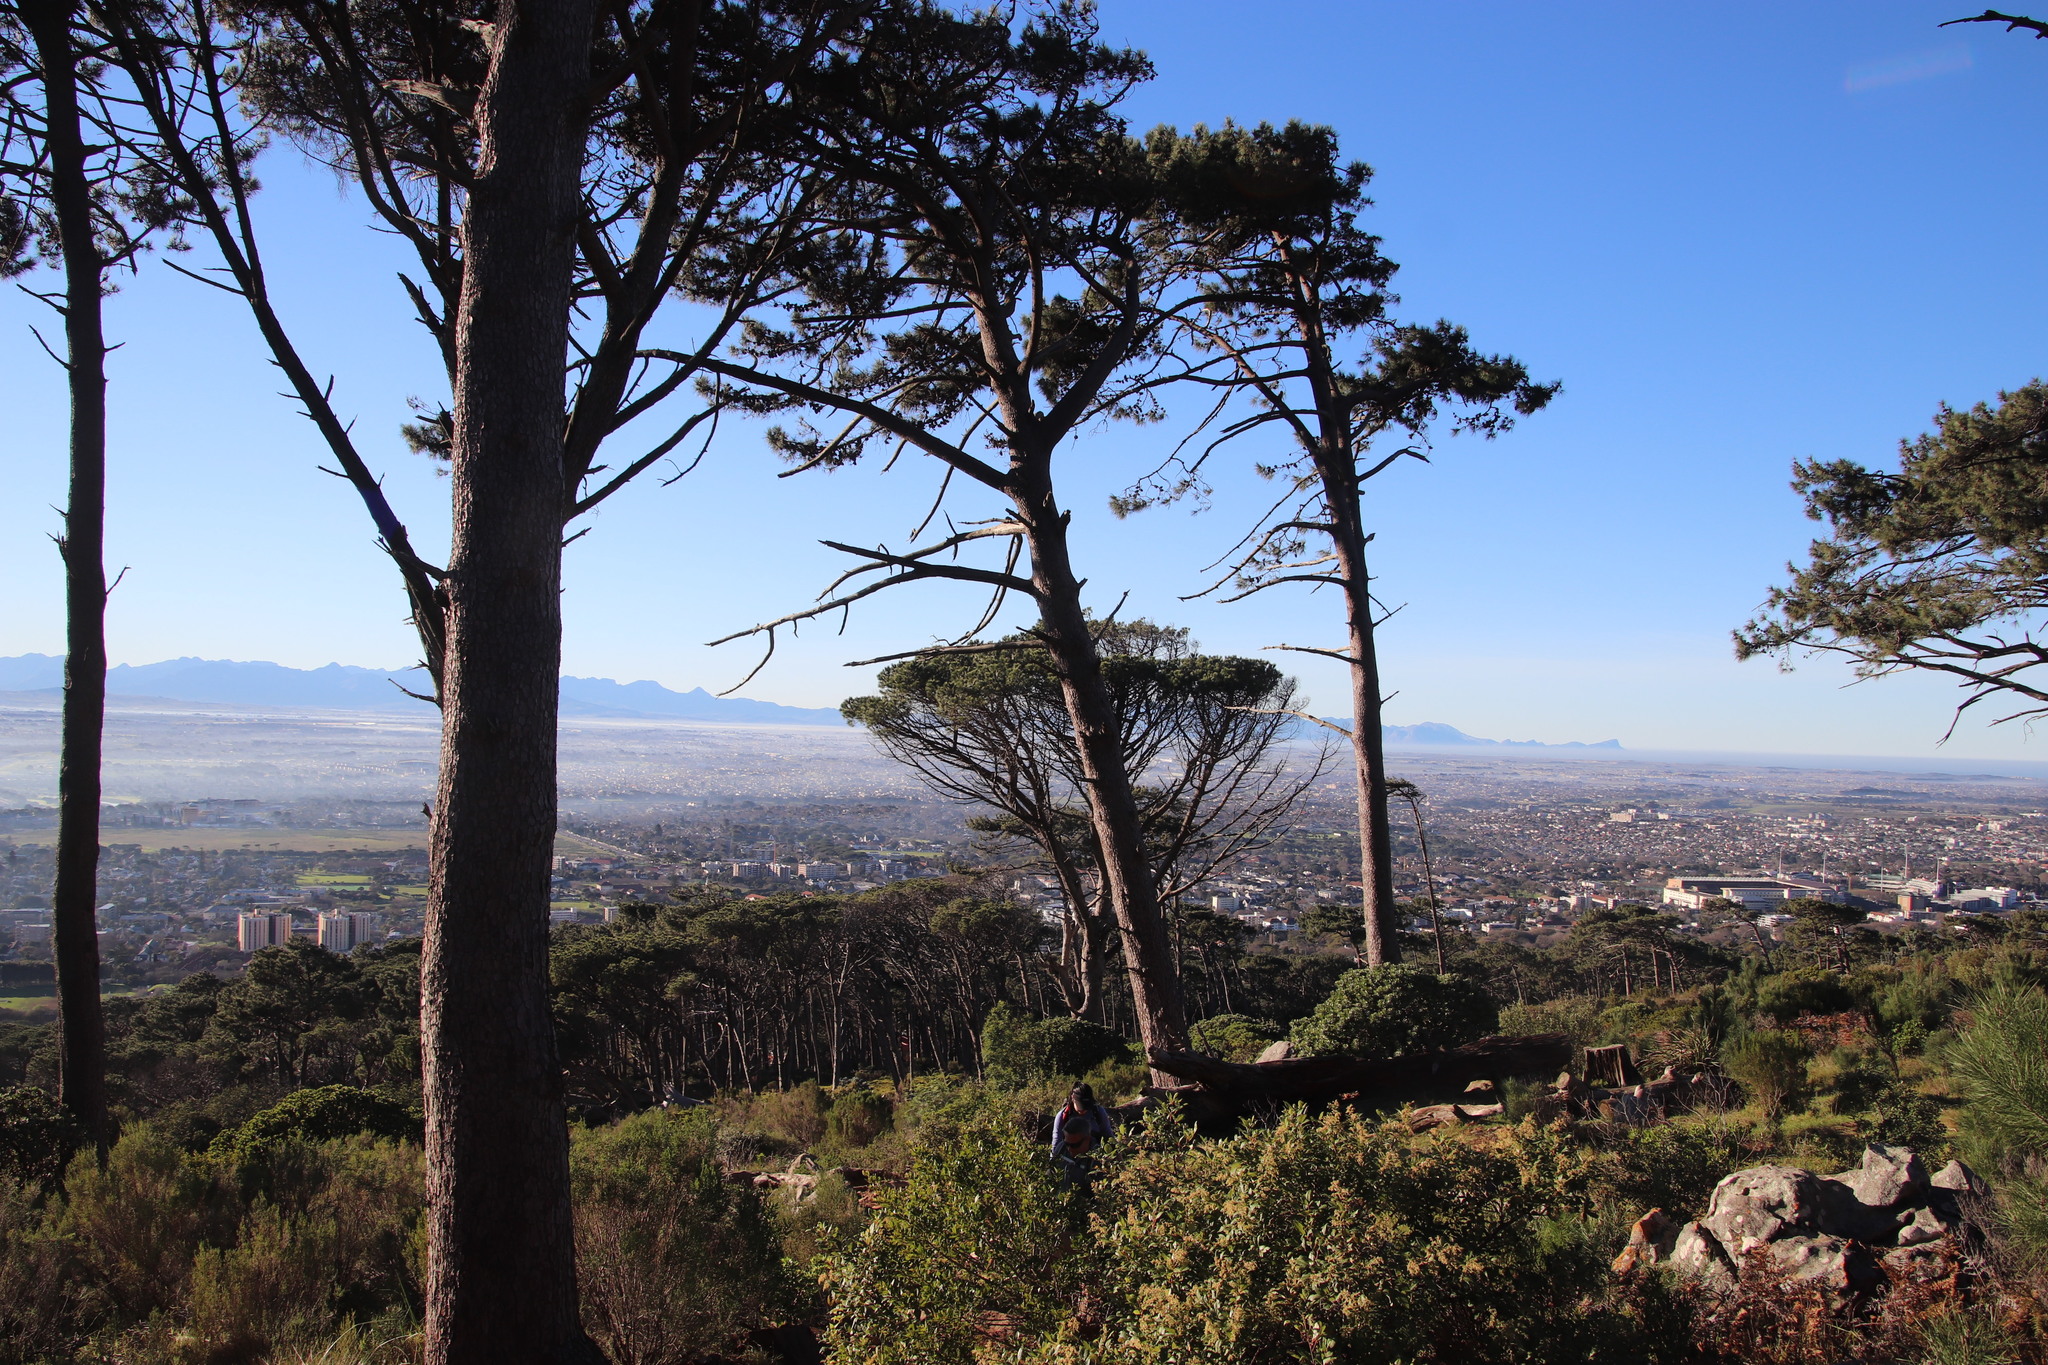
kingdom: Plantae
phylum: Tracheophyta
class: Pinopsida
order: Pinales
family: Pinaceae
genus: Pinus
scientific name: Pinus pinea
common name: Italian stone pine
